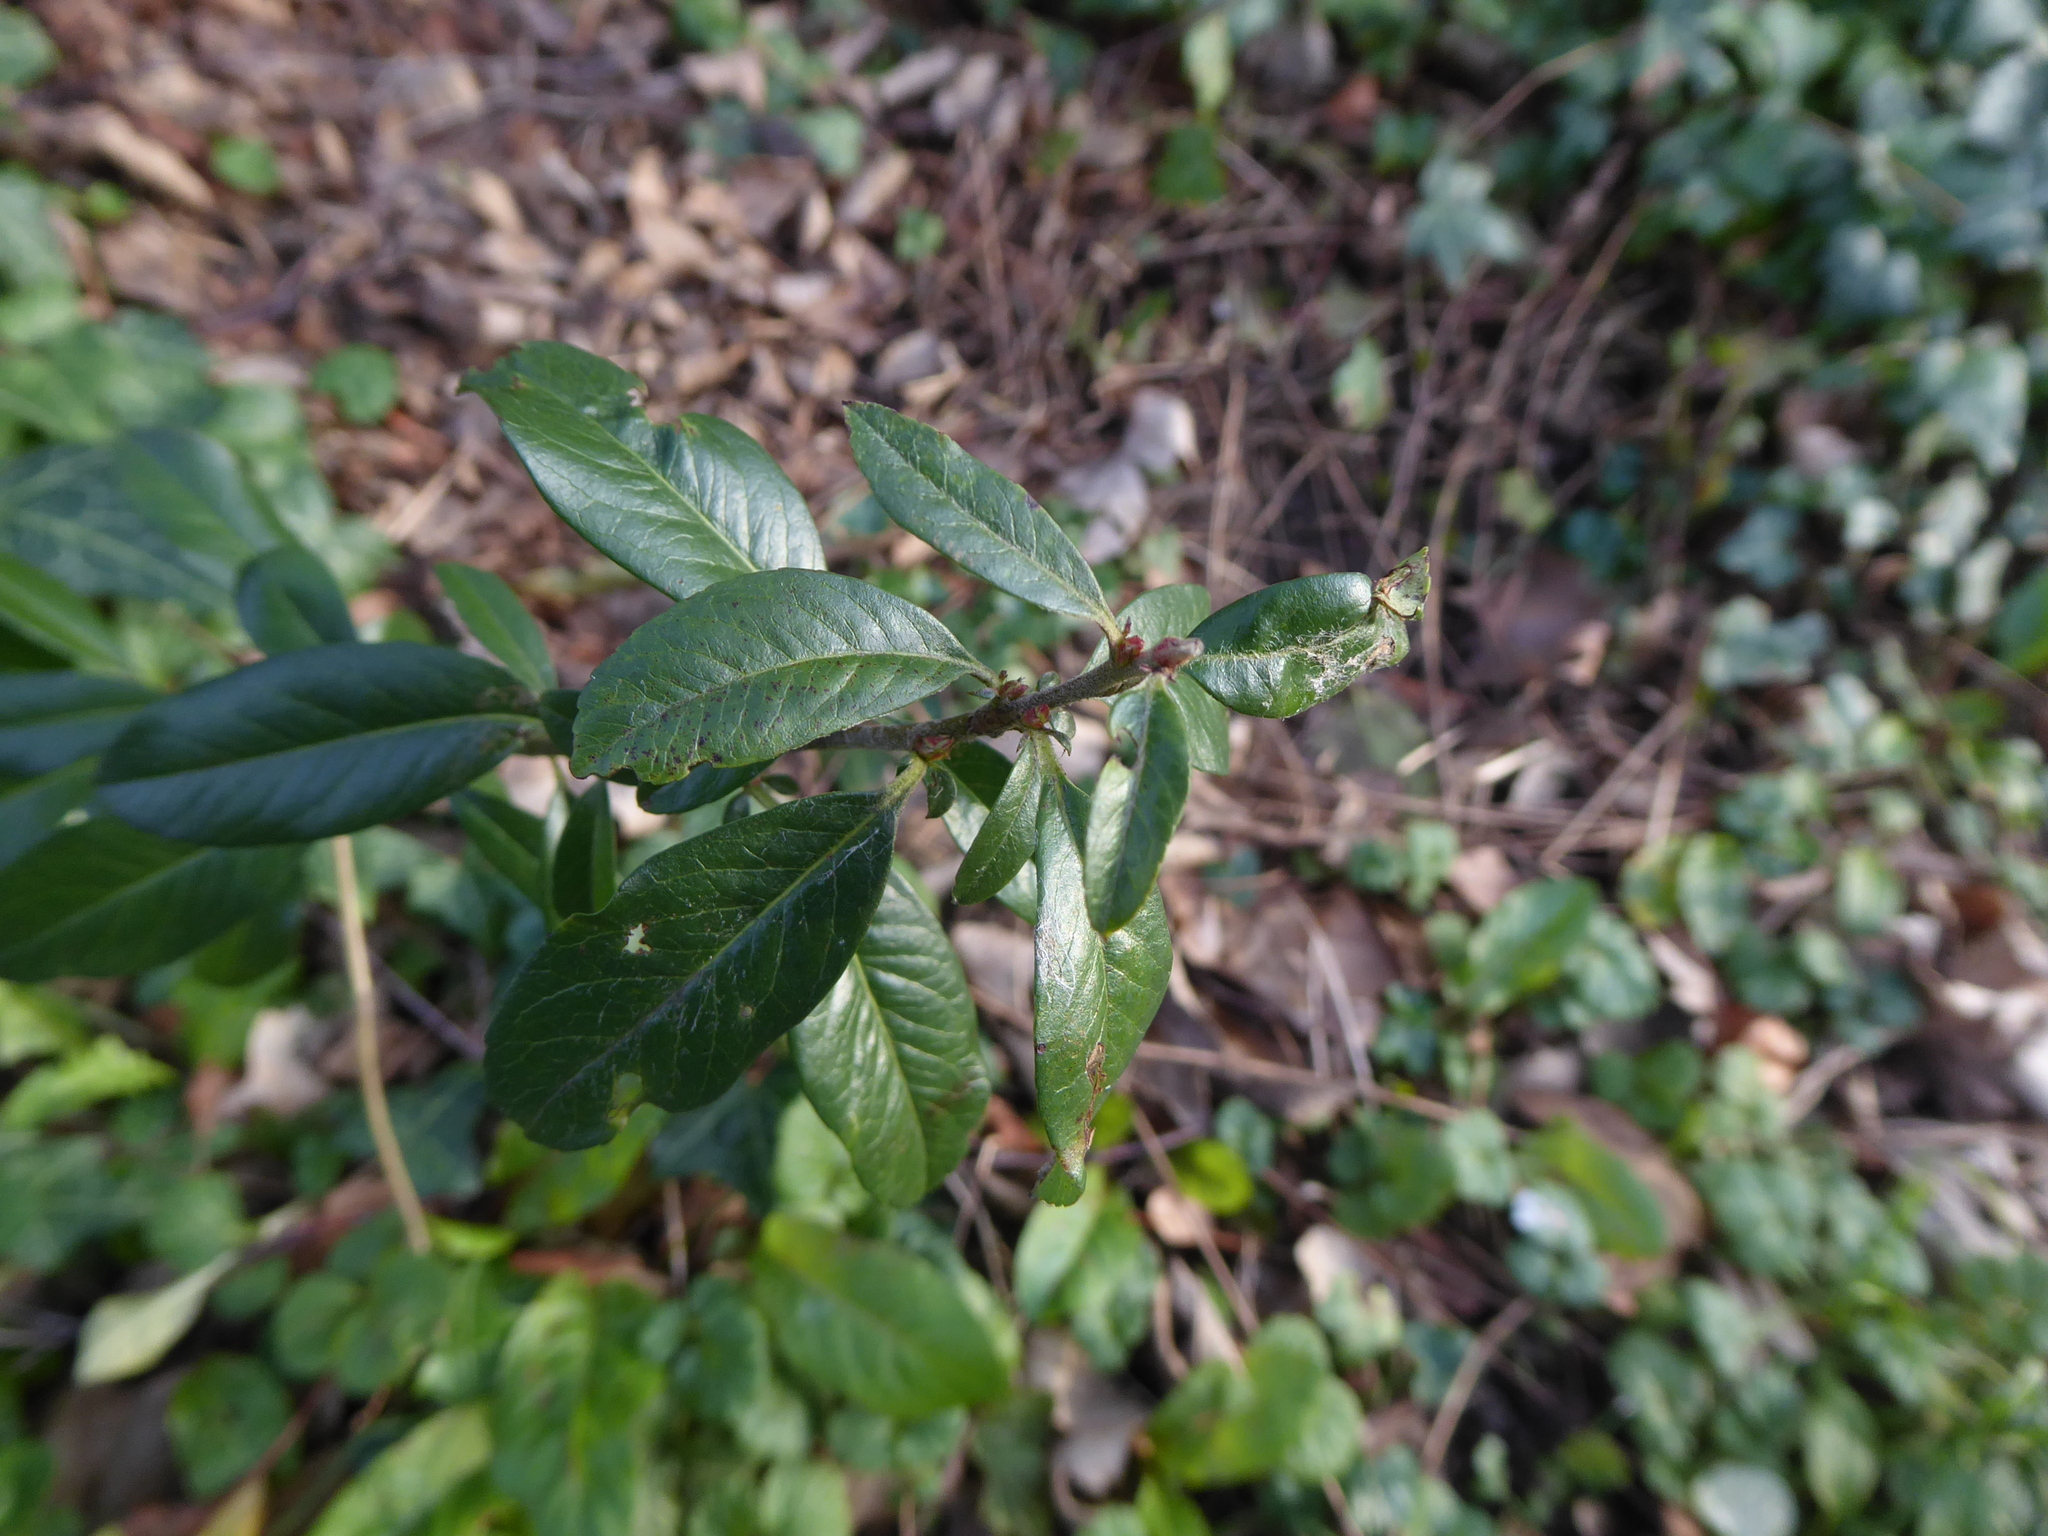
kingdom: Plantae
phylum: Tracheophyta
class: Magnoliopsida
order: Rosales
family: Rosaceae
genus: Pyracantha
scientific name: Pyracantha coccinea
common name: Firethorn
